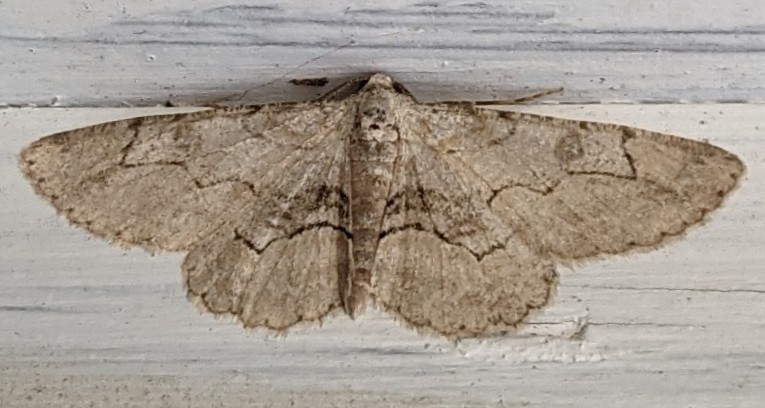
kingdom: Animalia
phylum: Arthropoda
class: Insecta
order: Lepidoptera
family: Geometridae
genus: Iridopsis
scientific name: Iridopsis larvaria
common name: Bent-line gray
